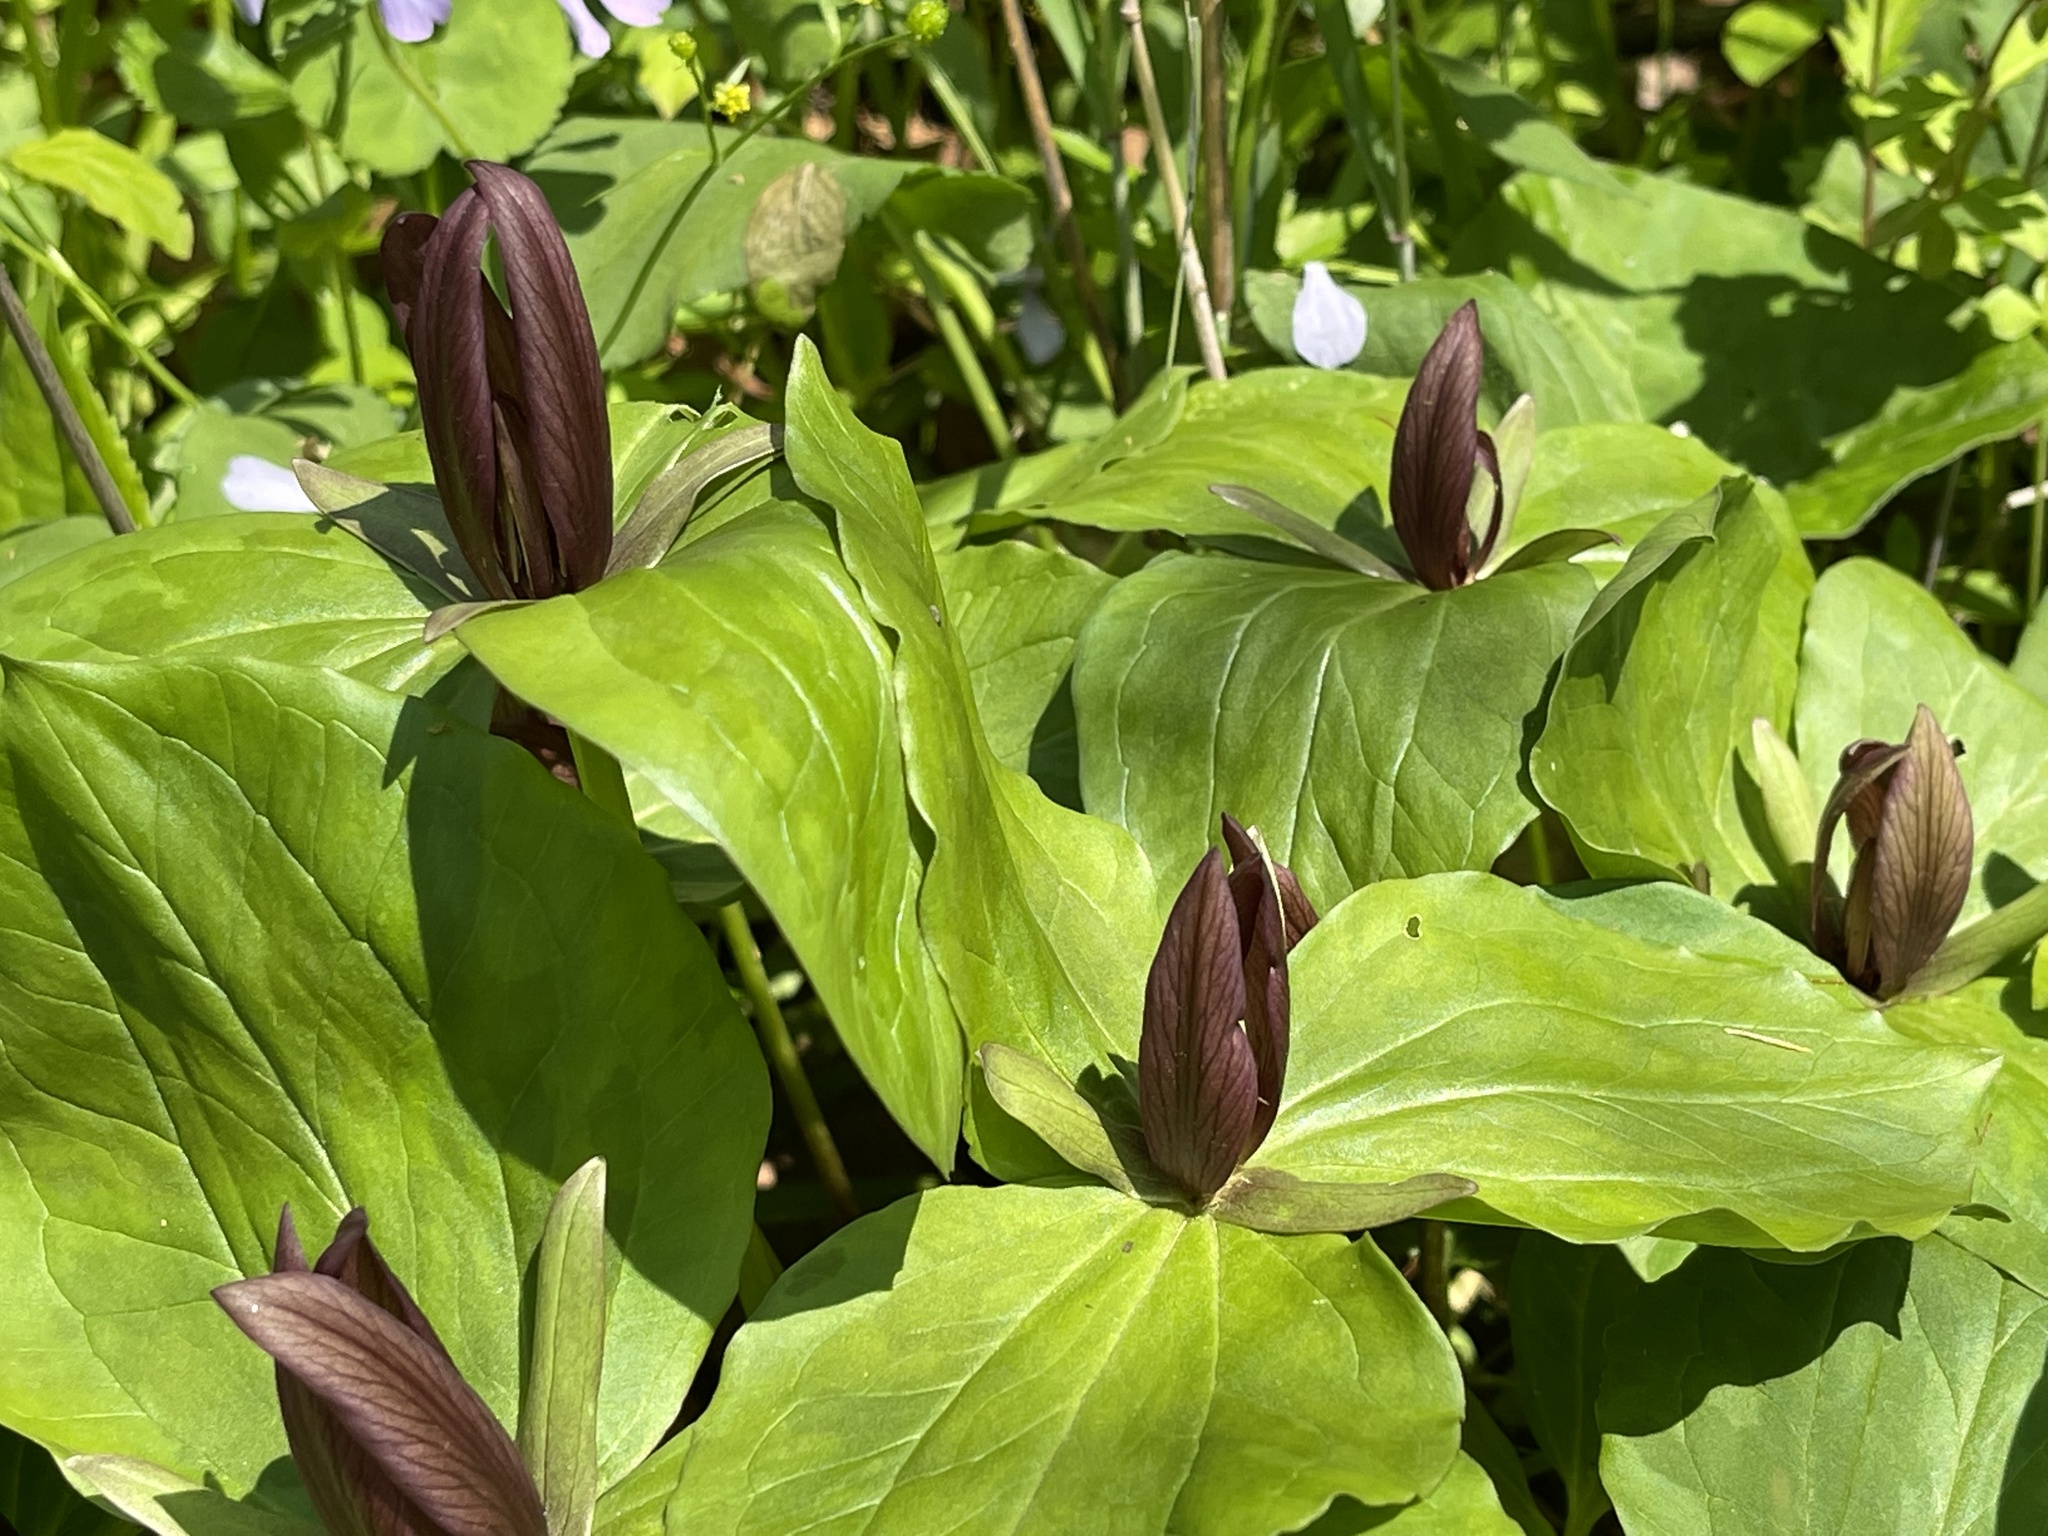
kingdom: Plantae
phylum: Tracheophyta
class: Liliopsida
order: Liliales
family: Melanthiaceae
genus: Trillium
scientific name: Trillium sessile
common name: Sessile trillium
